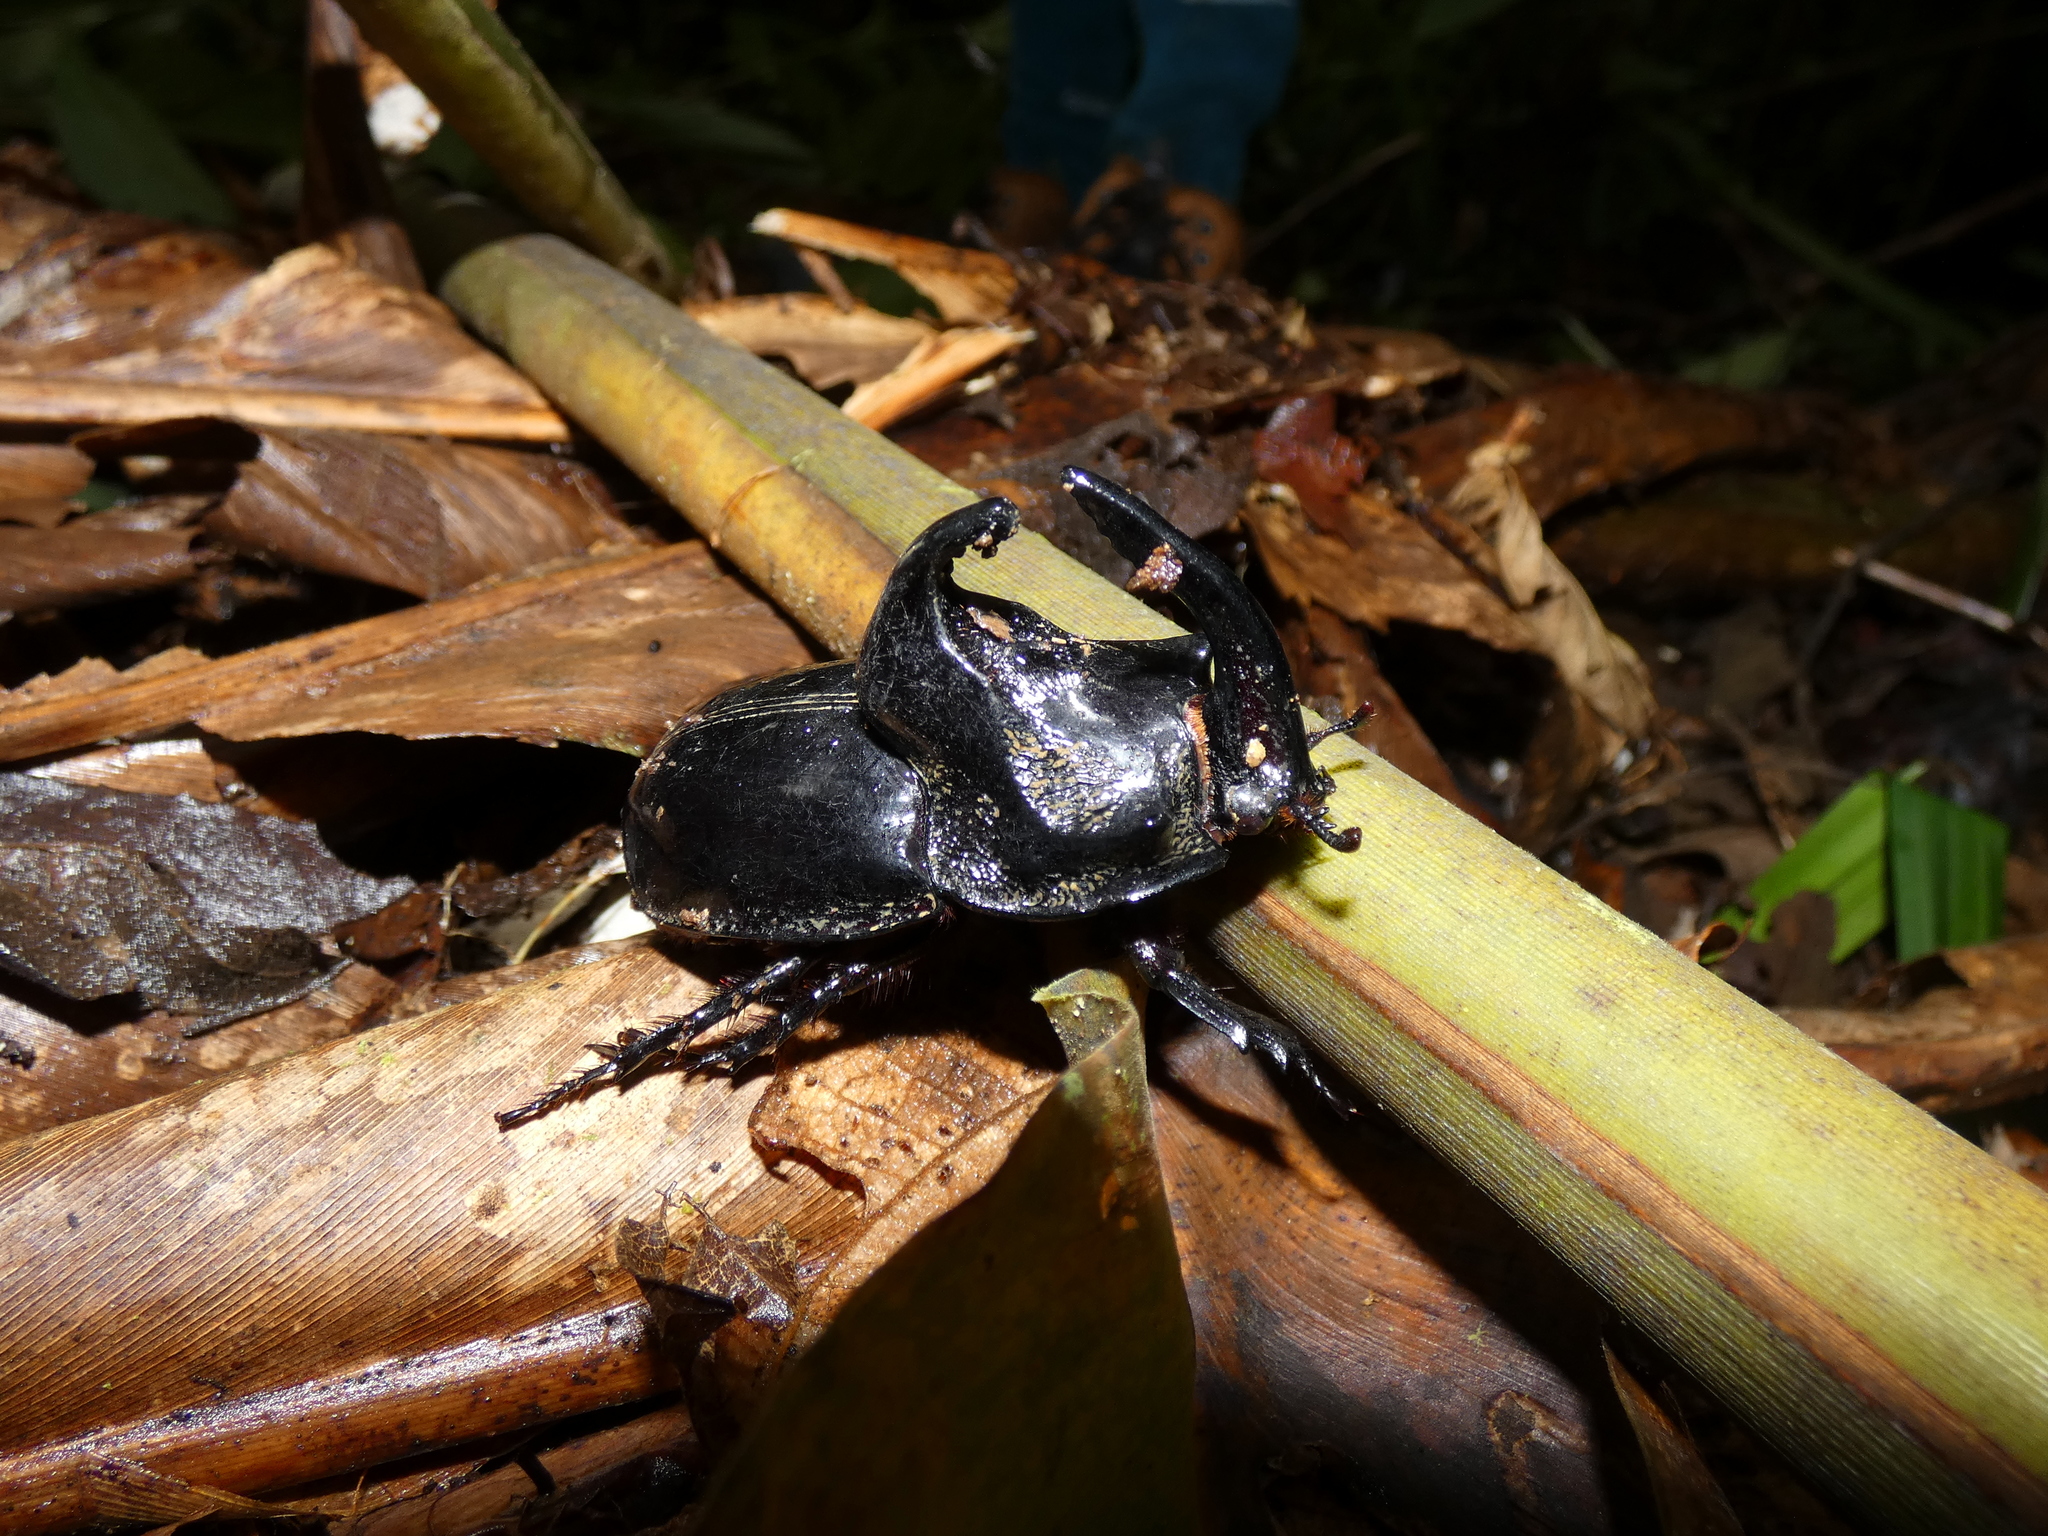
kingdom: Animalia
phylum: Arthropoda
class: Insecta
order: Coleoptera
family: Scarabaeidae
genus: Trichogomphus
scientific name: Trichogomphus simson
